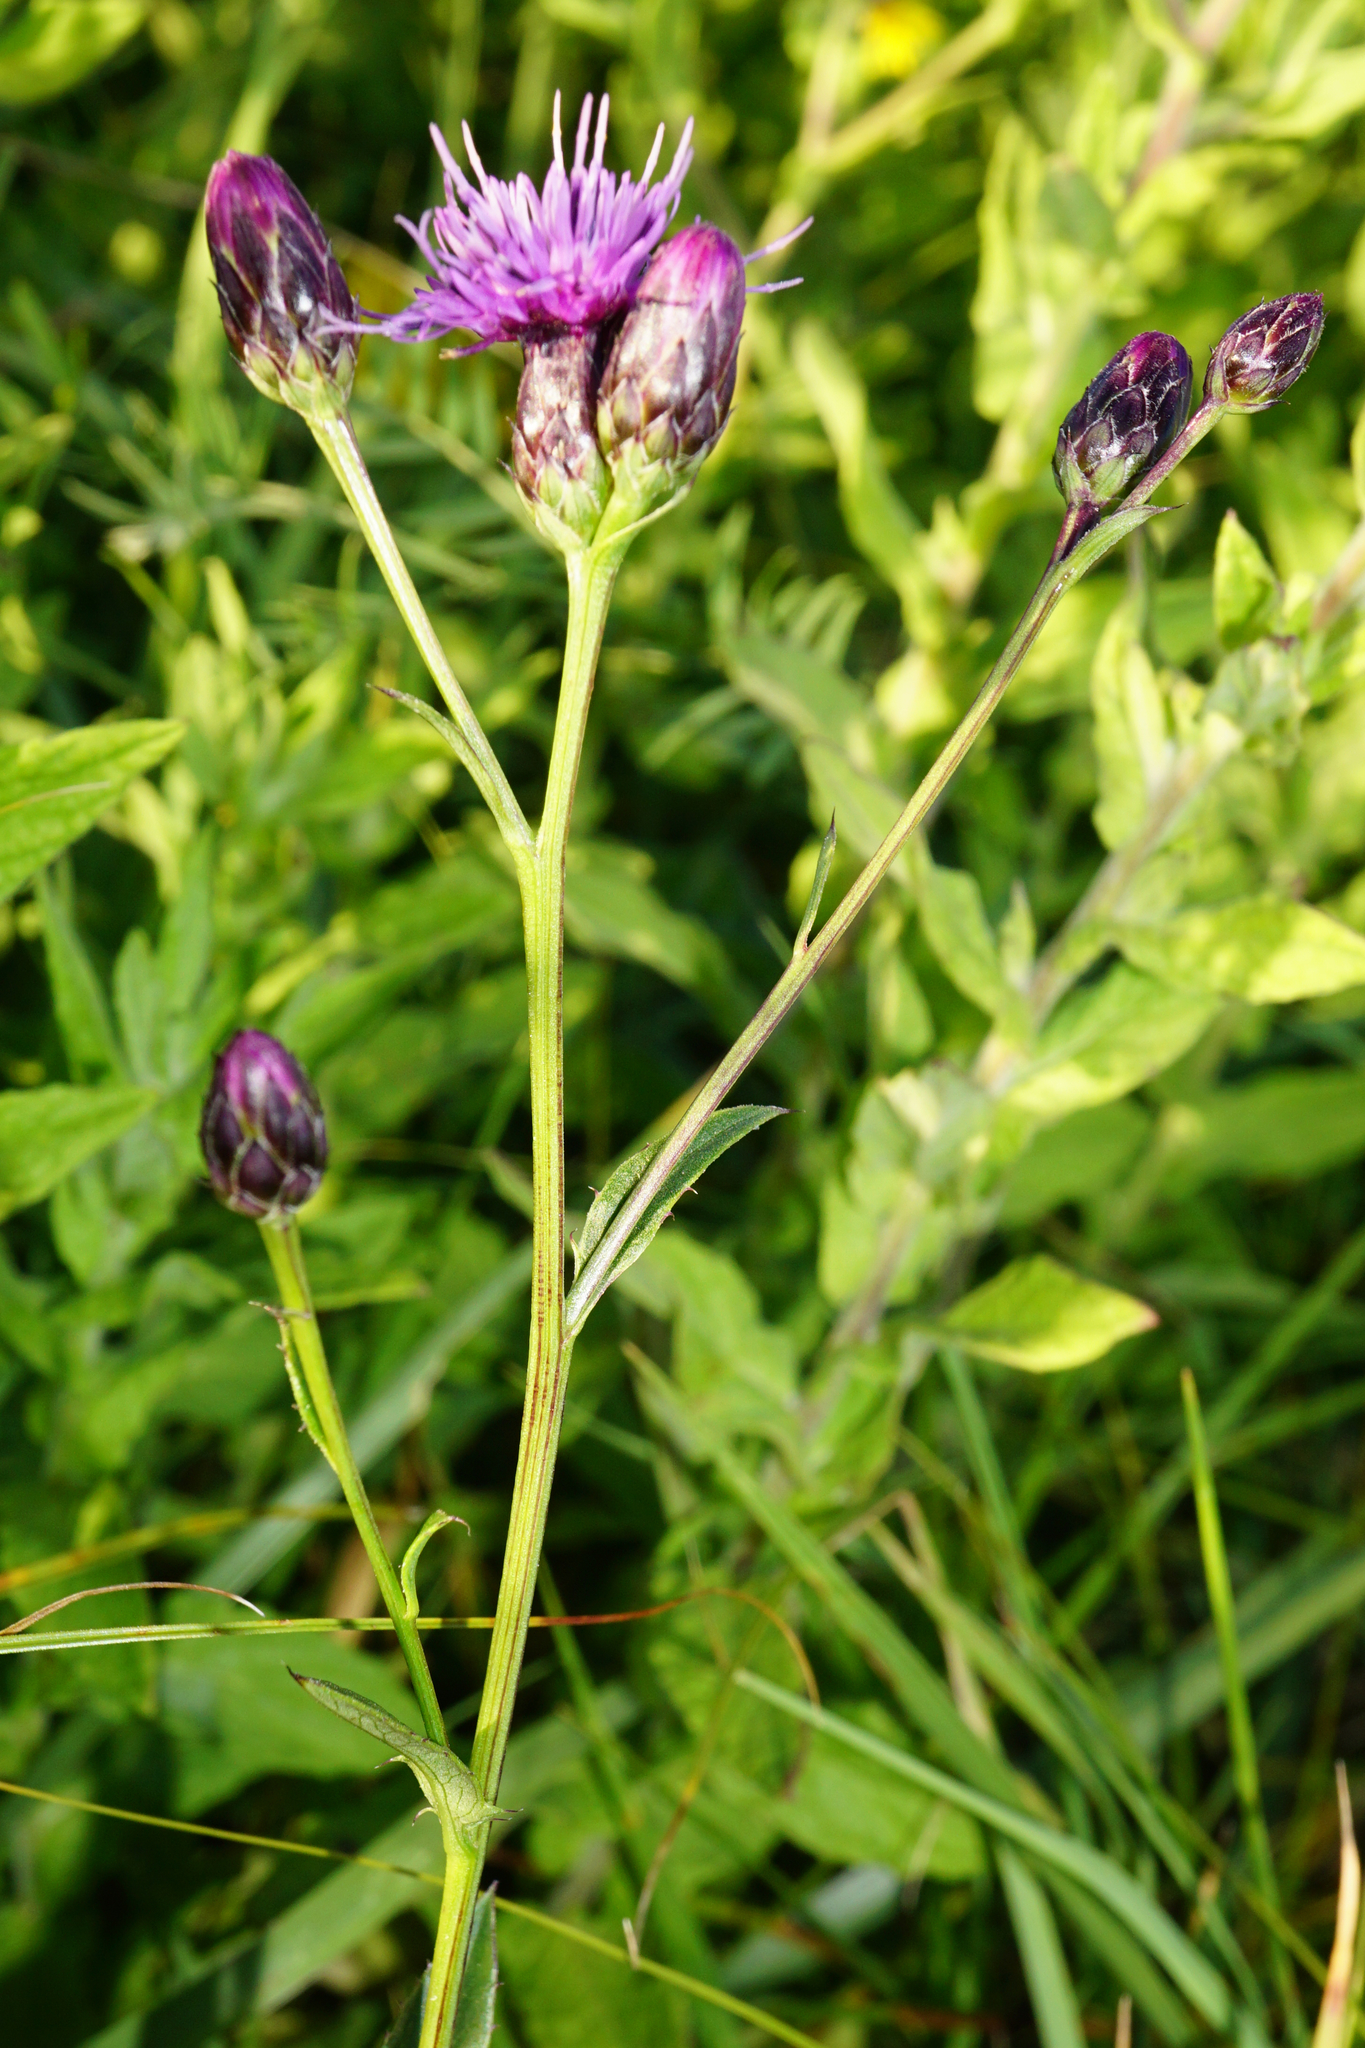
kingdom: Plantae
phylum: Tracheophyta
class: Magnoliopsida
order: Asterales
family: Asteraceae
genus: Serratula
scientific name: Serratula tinctoria
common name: Saw-wort
